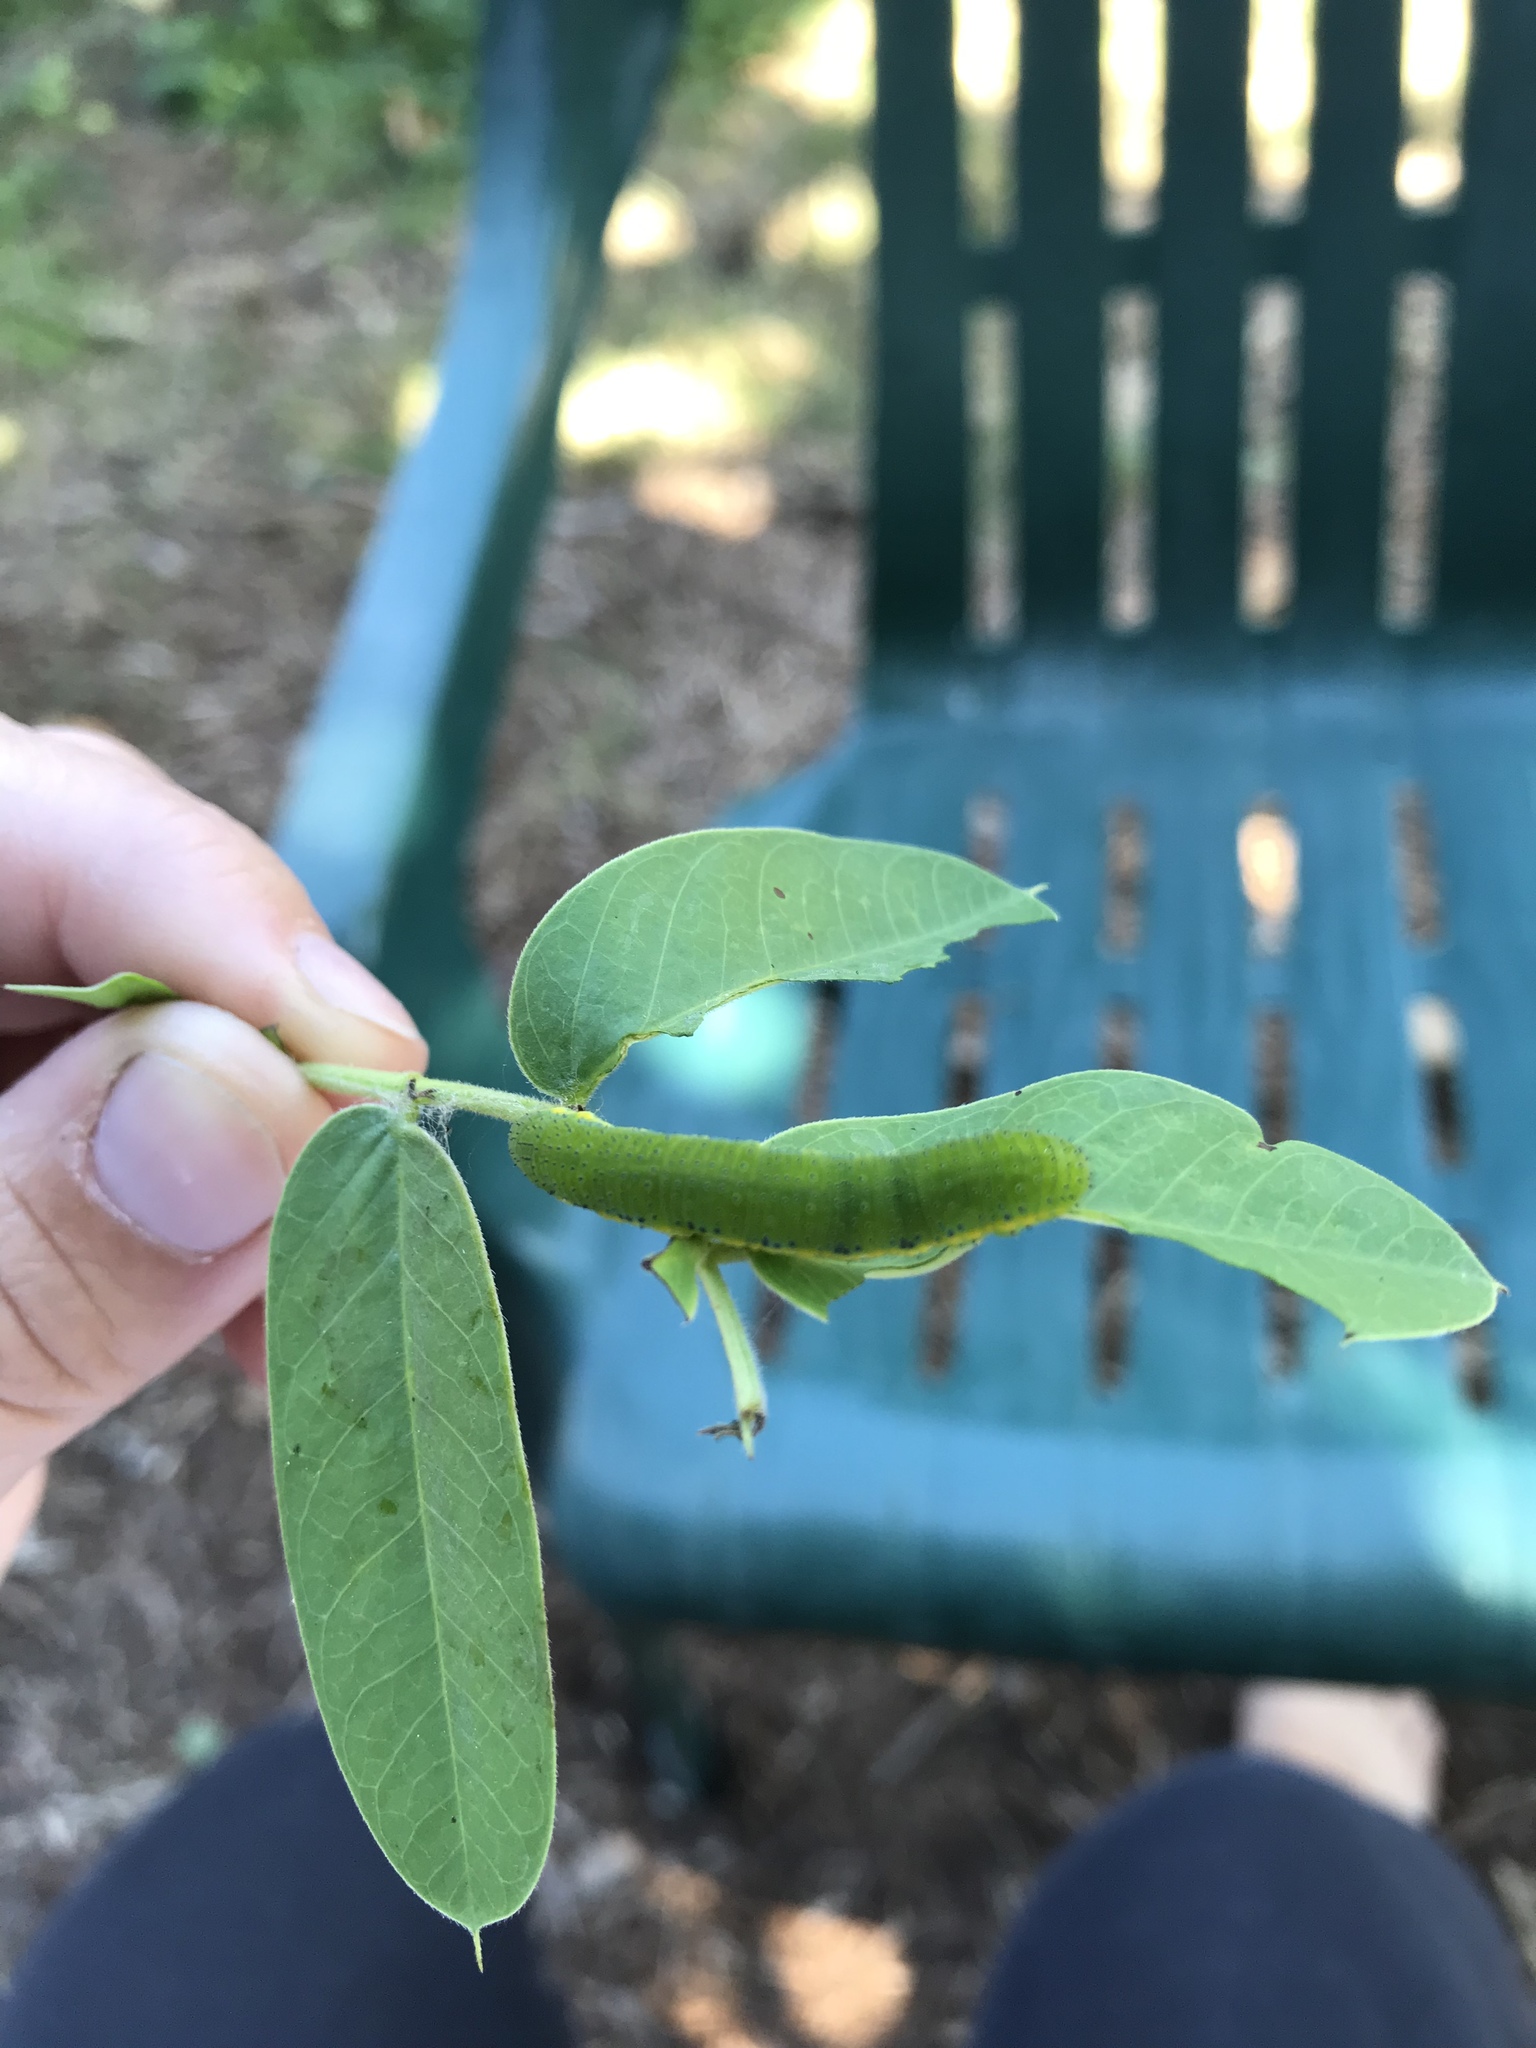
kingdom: Animalia
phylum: Arthropoda
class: Insecta
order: Lepidoptera
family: Pieridae
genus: Phoebis
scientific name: Phoebis sennae
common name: Cloudless sulphur
